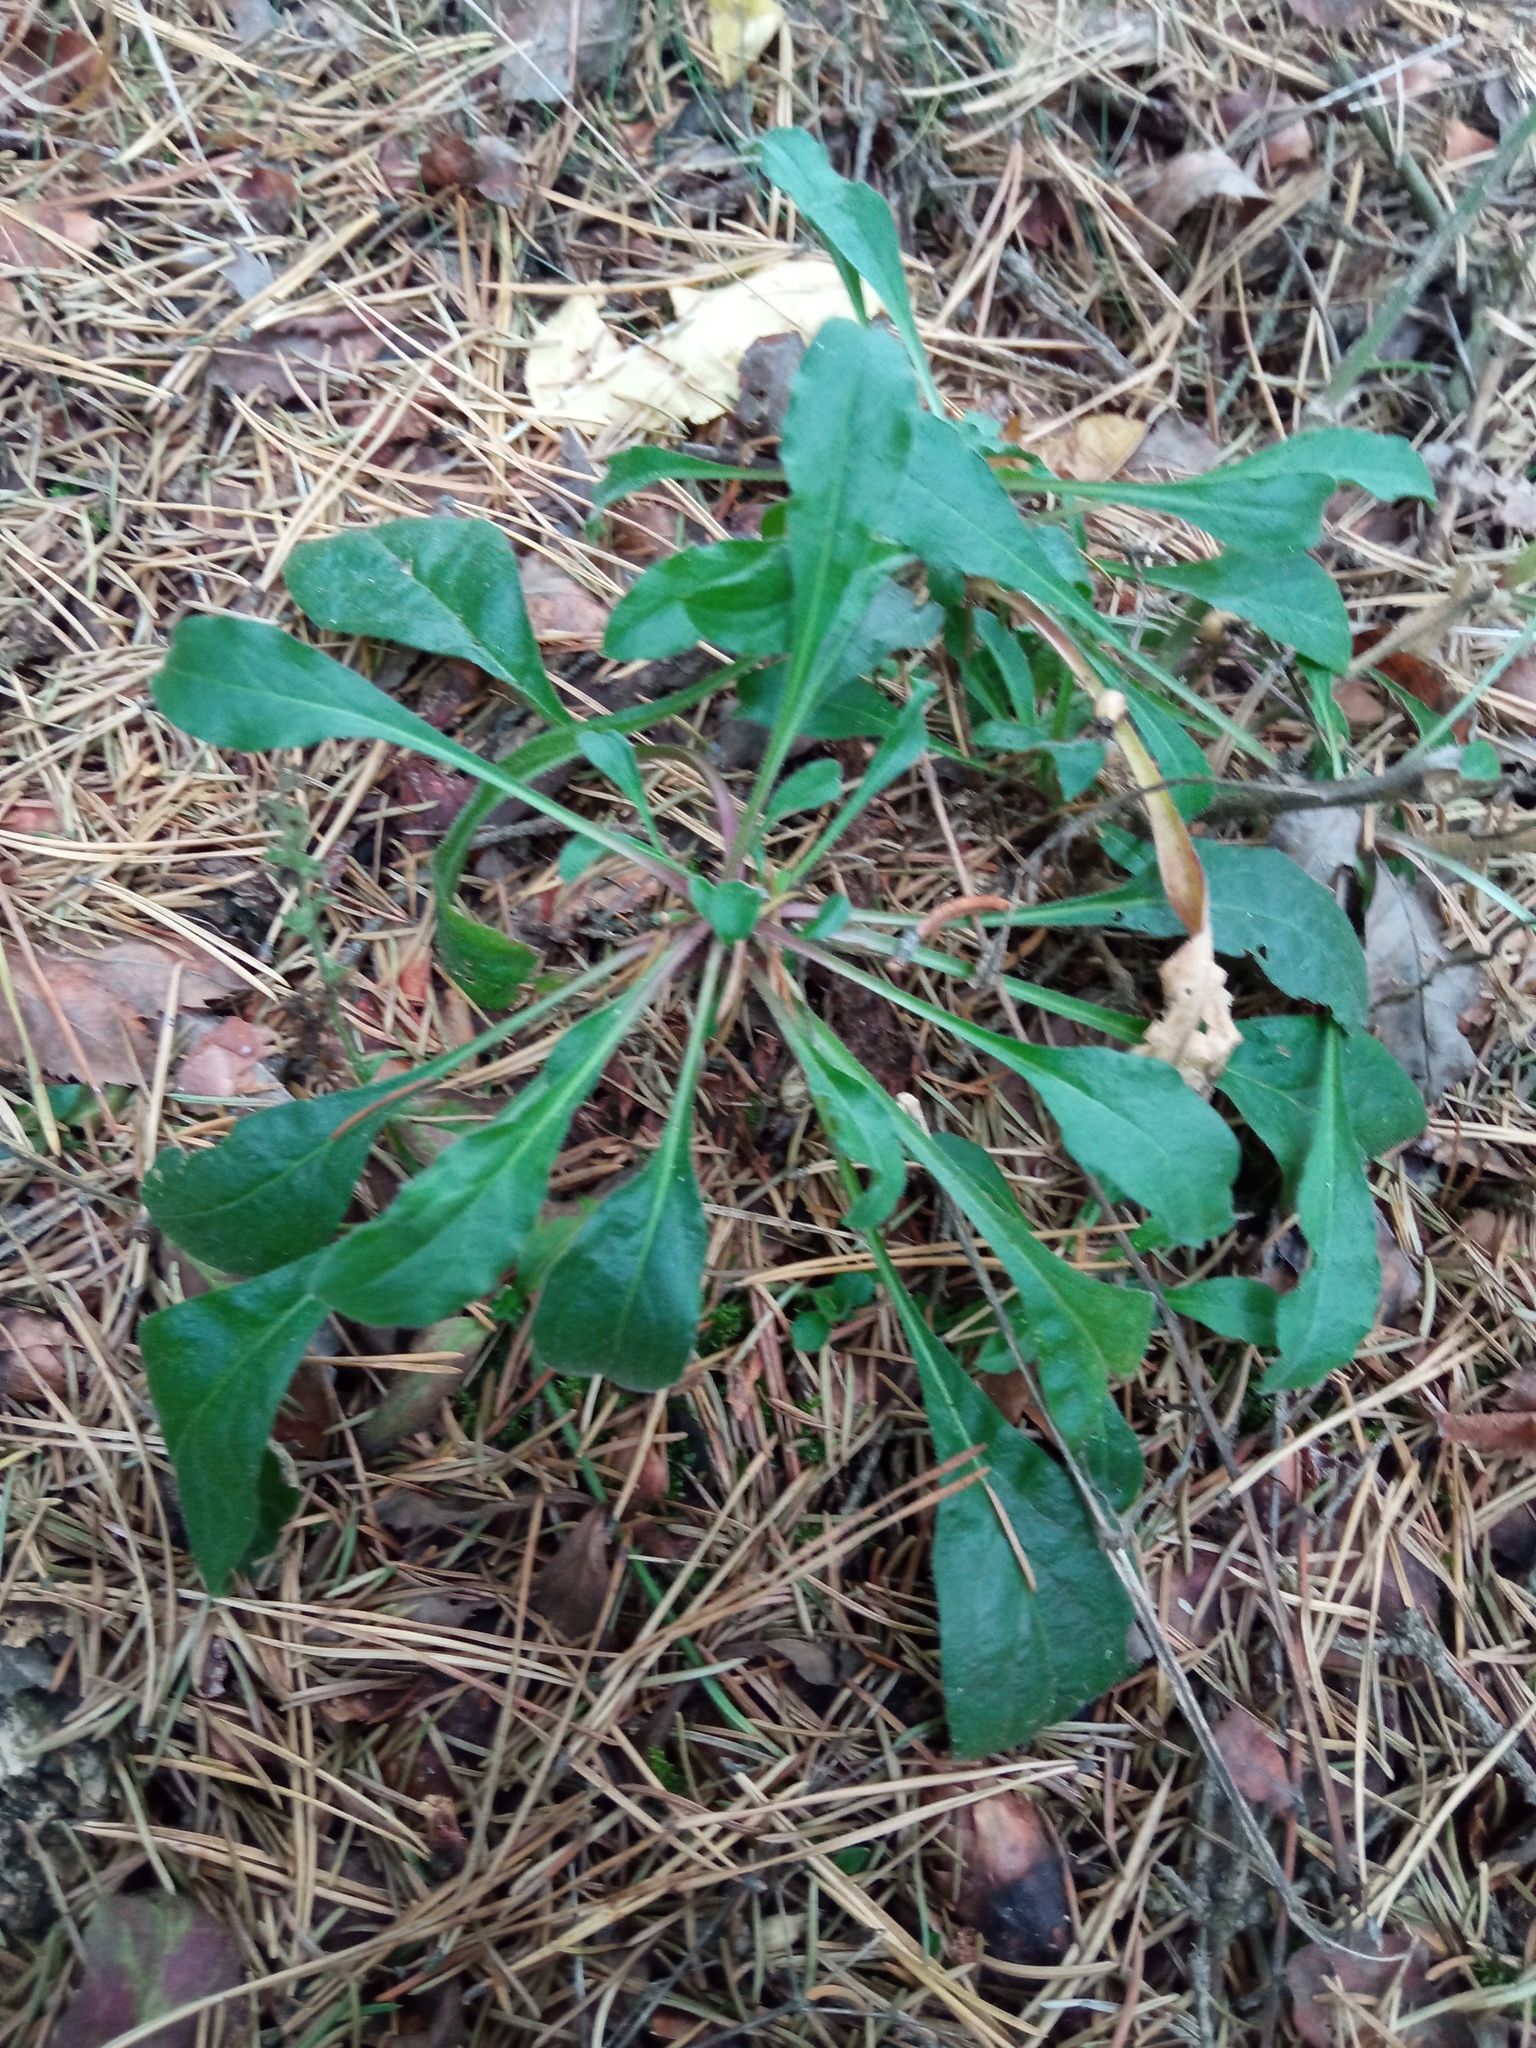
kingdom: Plantae
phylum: Tracheophyta
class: Magnoliopsida
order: Caryophyllales
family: Caryophyllaceae
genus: Silene
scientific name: Silene nutans
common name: Nottingham catchfly
